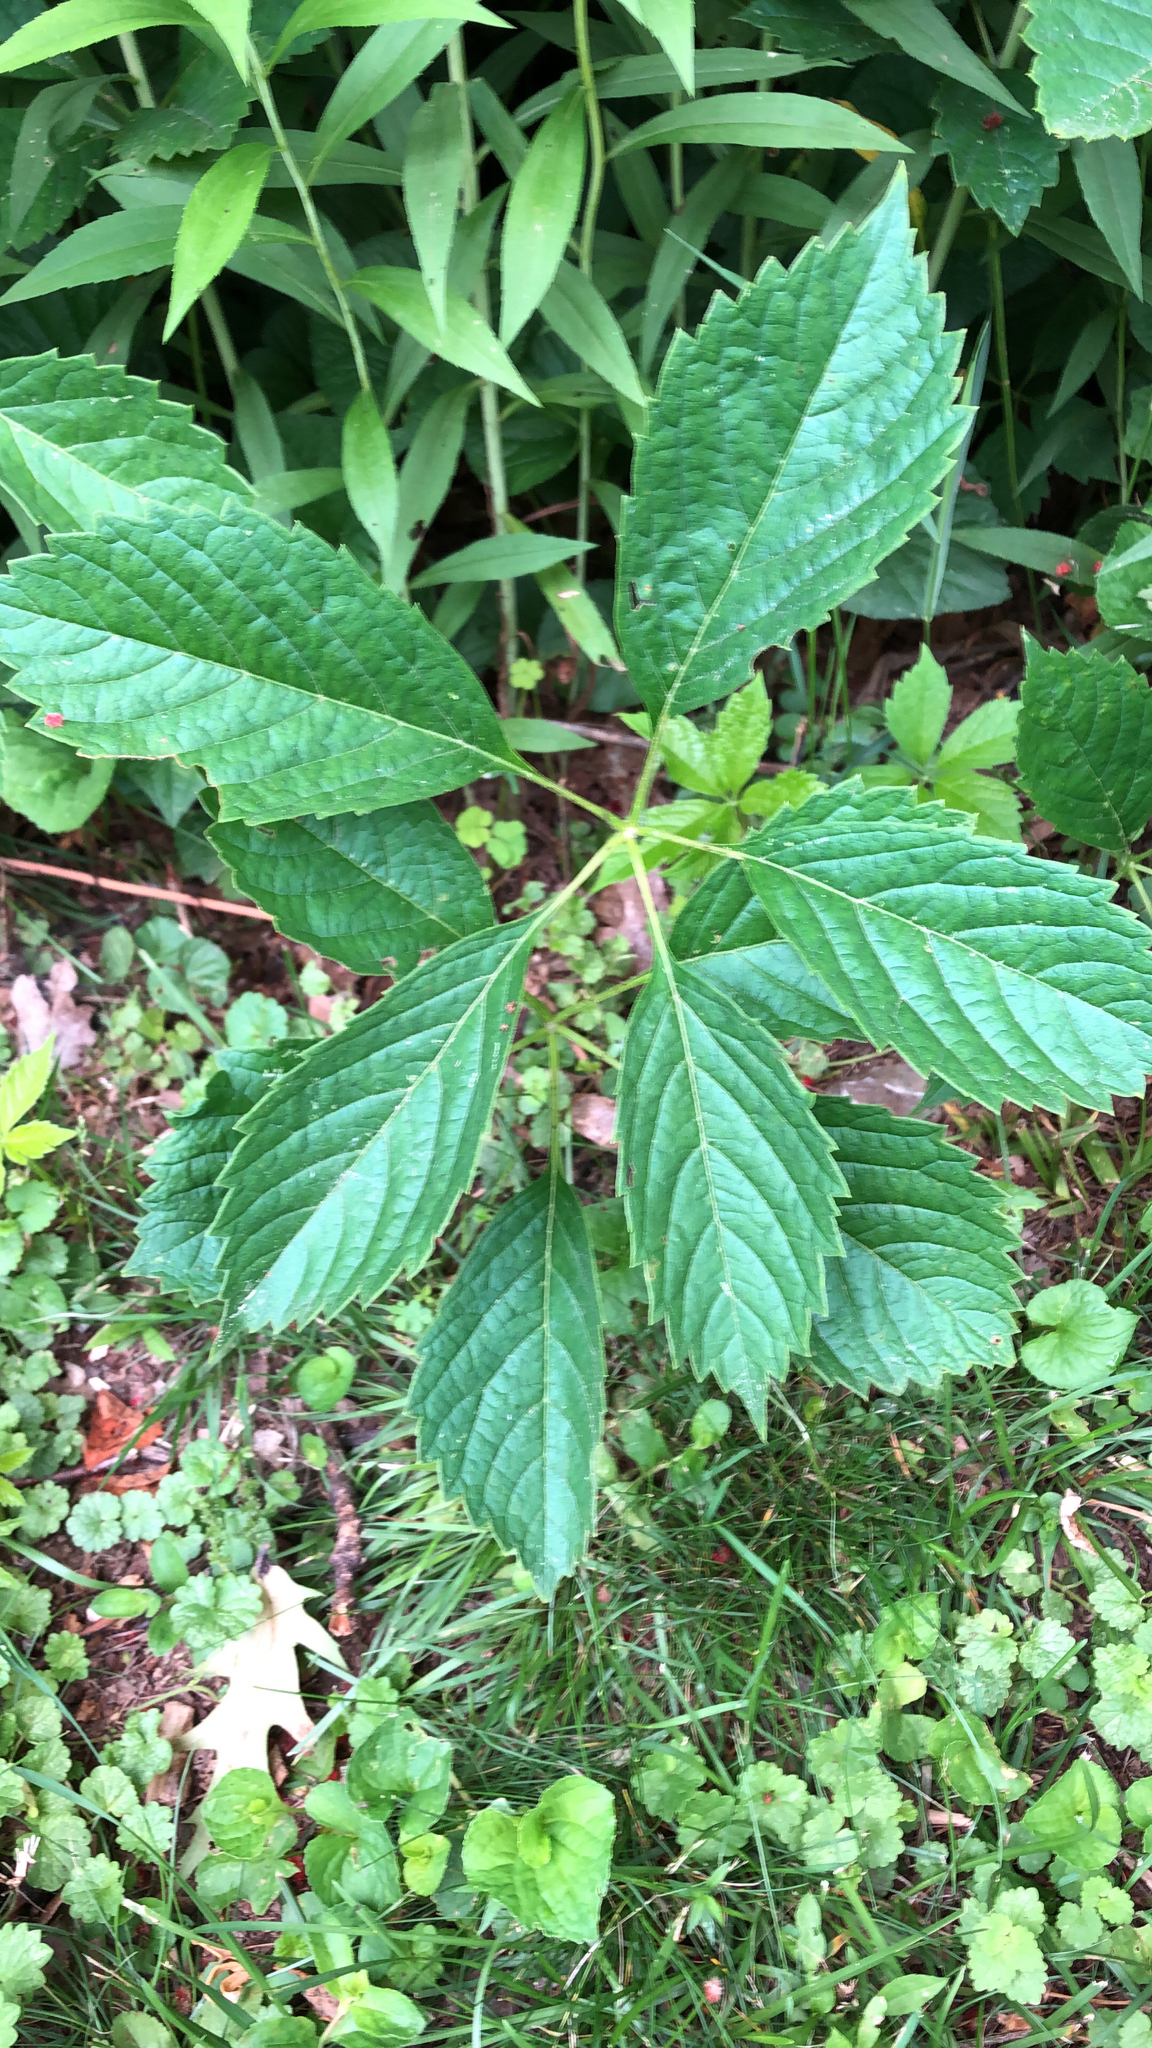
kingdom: Plantae
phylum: Tracheophyta
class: Magnoliopsida
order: Vitales
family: Vitaceae
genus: Parthenocissus
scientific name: Parthenocissus inserta
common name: False virginia-creeper
